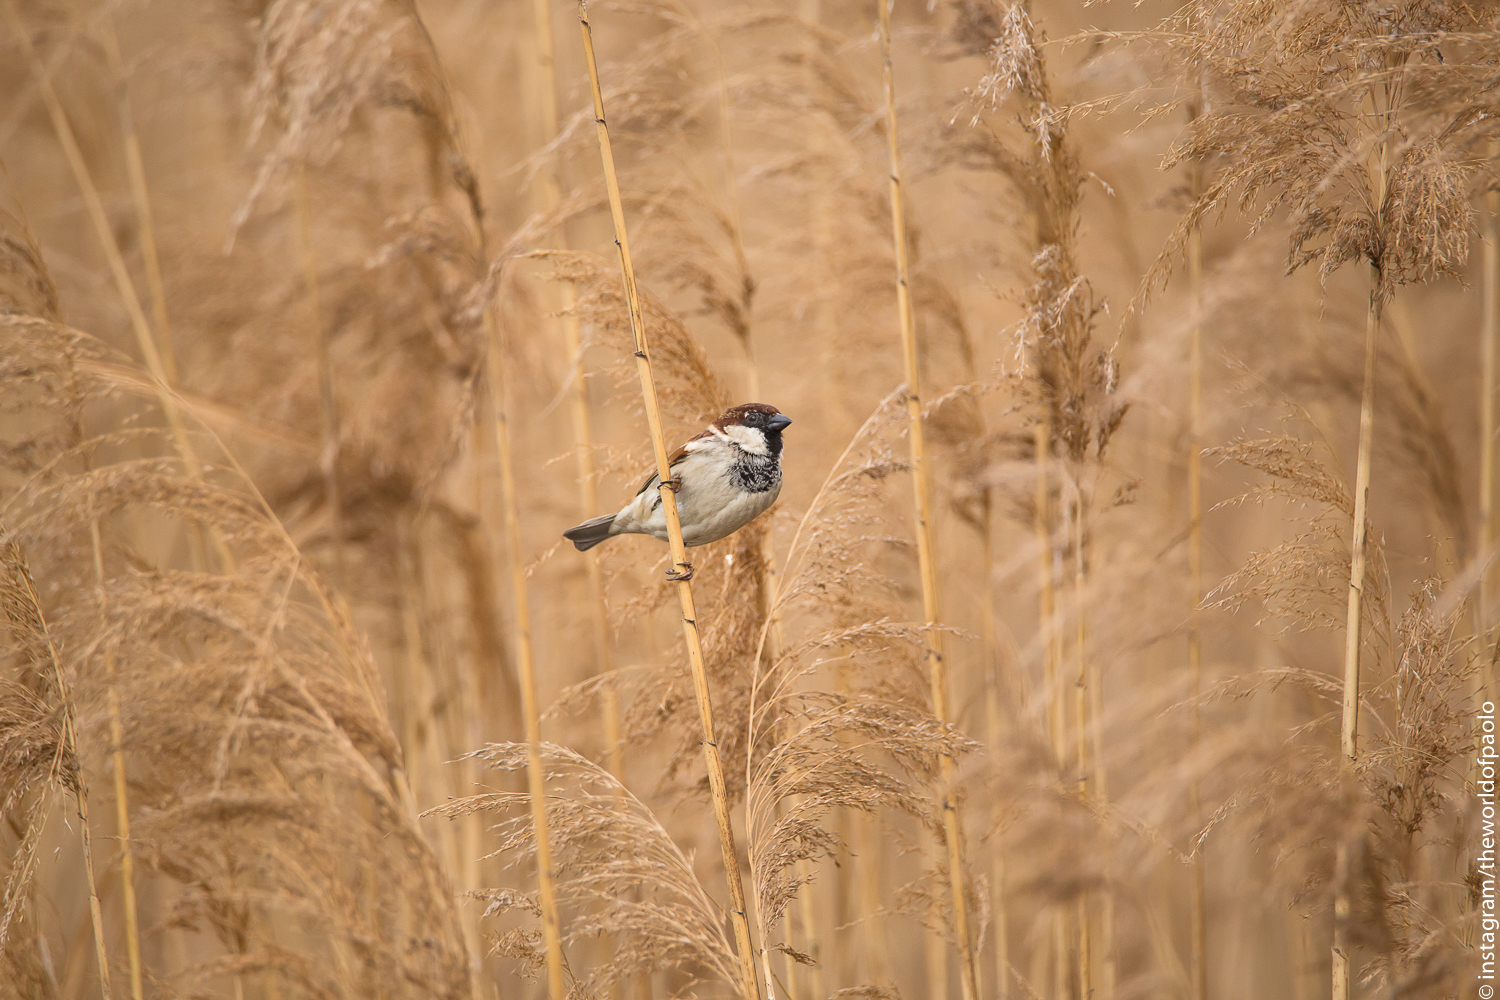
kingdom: Animalia
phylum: Chordata
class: Aves
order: Passeriformes
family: Passeridae
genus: Passer
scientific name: Passer italiae
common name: Italian sparrow
